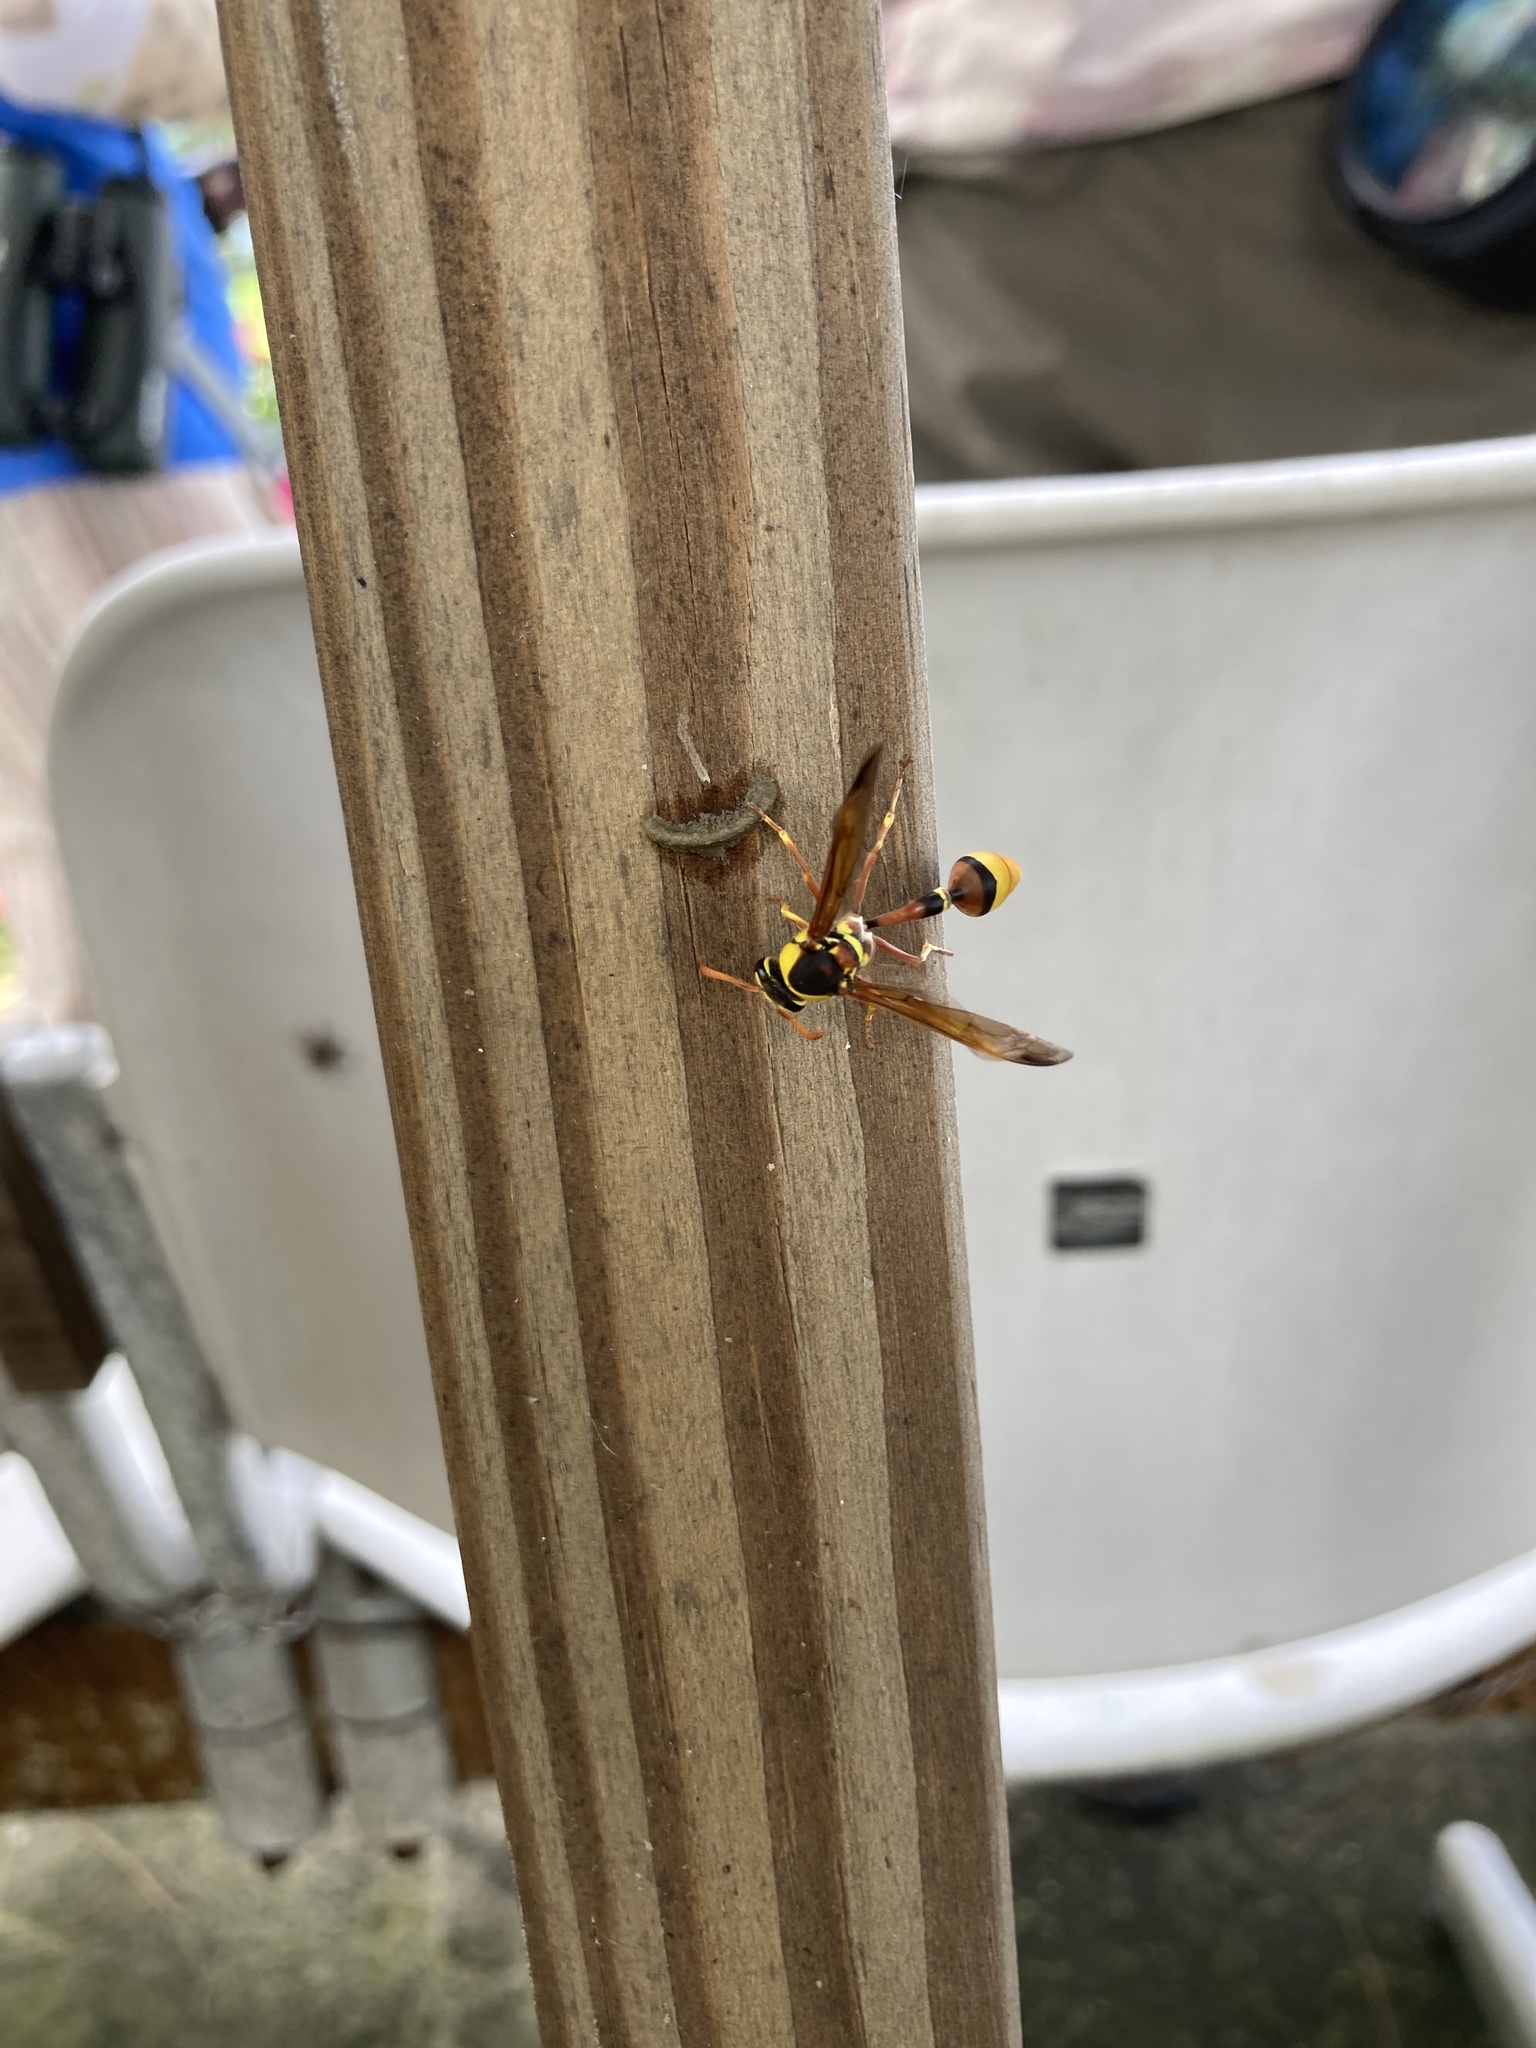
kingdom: Animalia
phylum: Arthropoda
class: Insecta
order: Hymenoptera
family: Eumenidae
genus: Delta
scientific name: Delta esuriens
